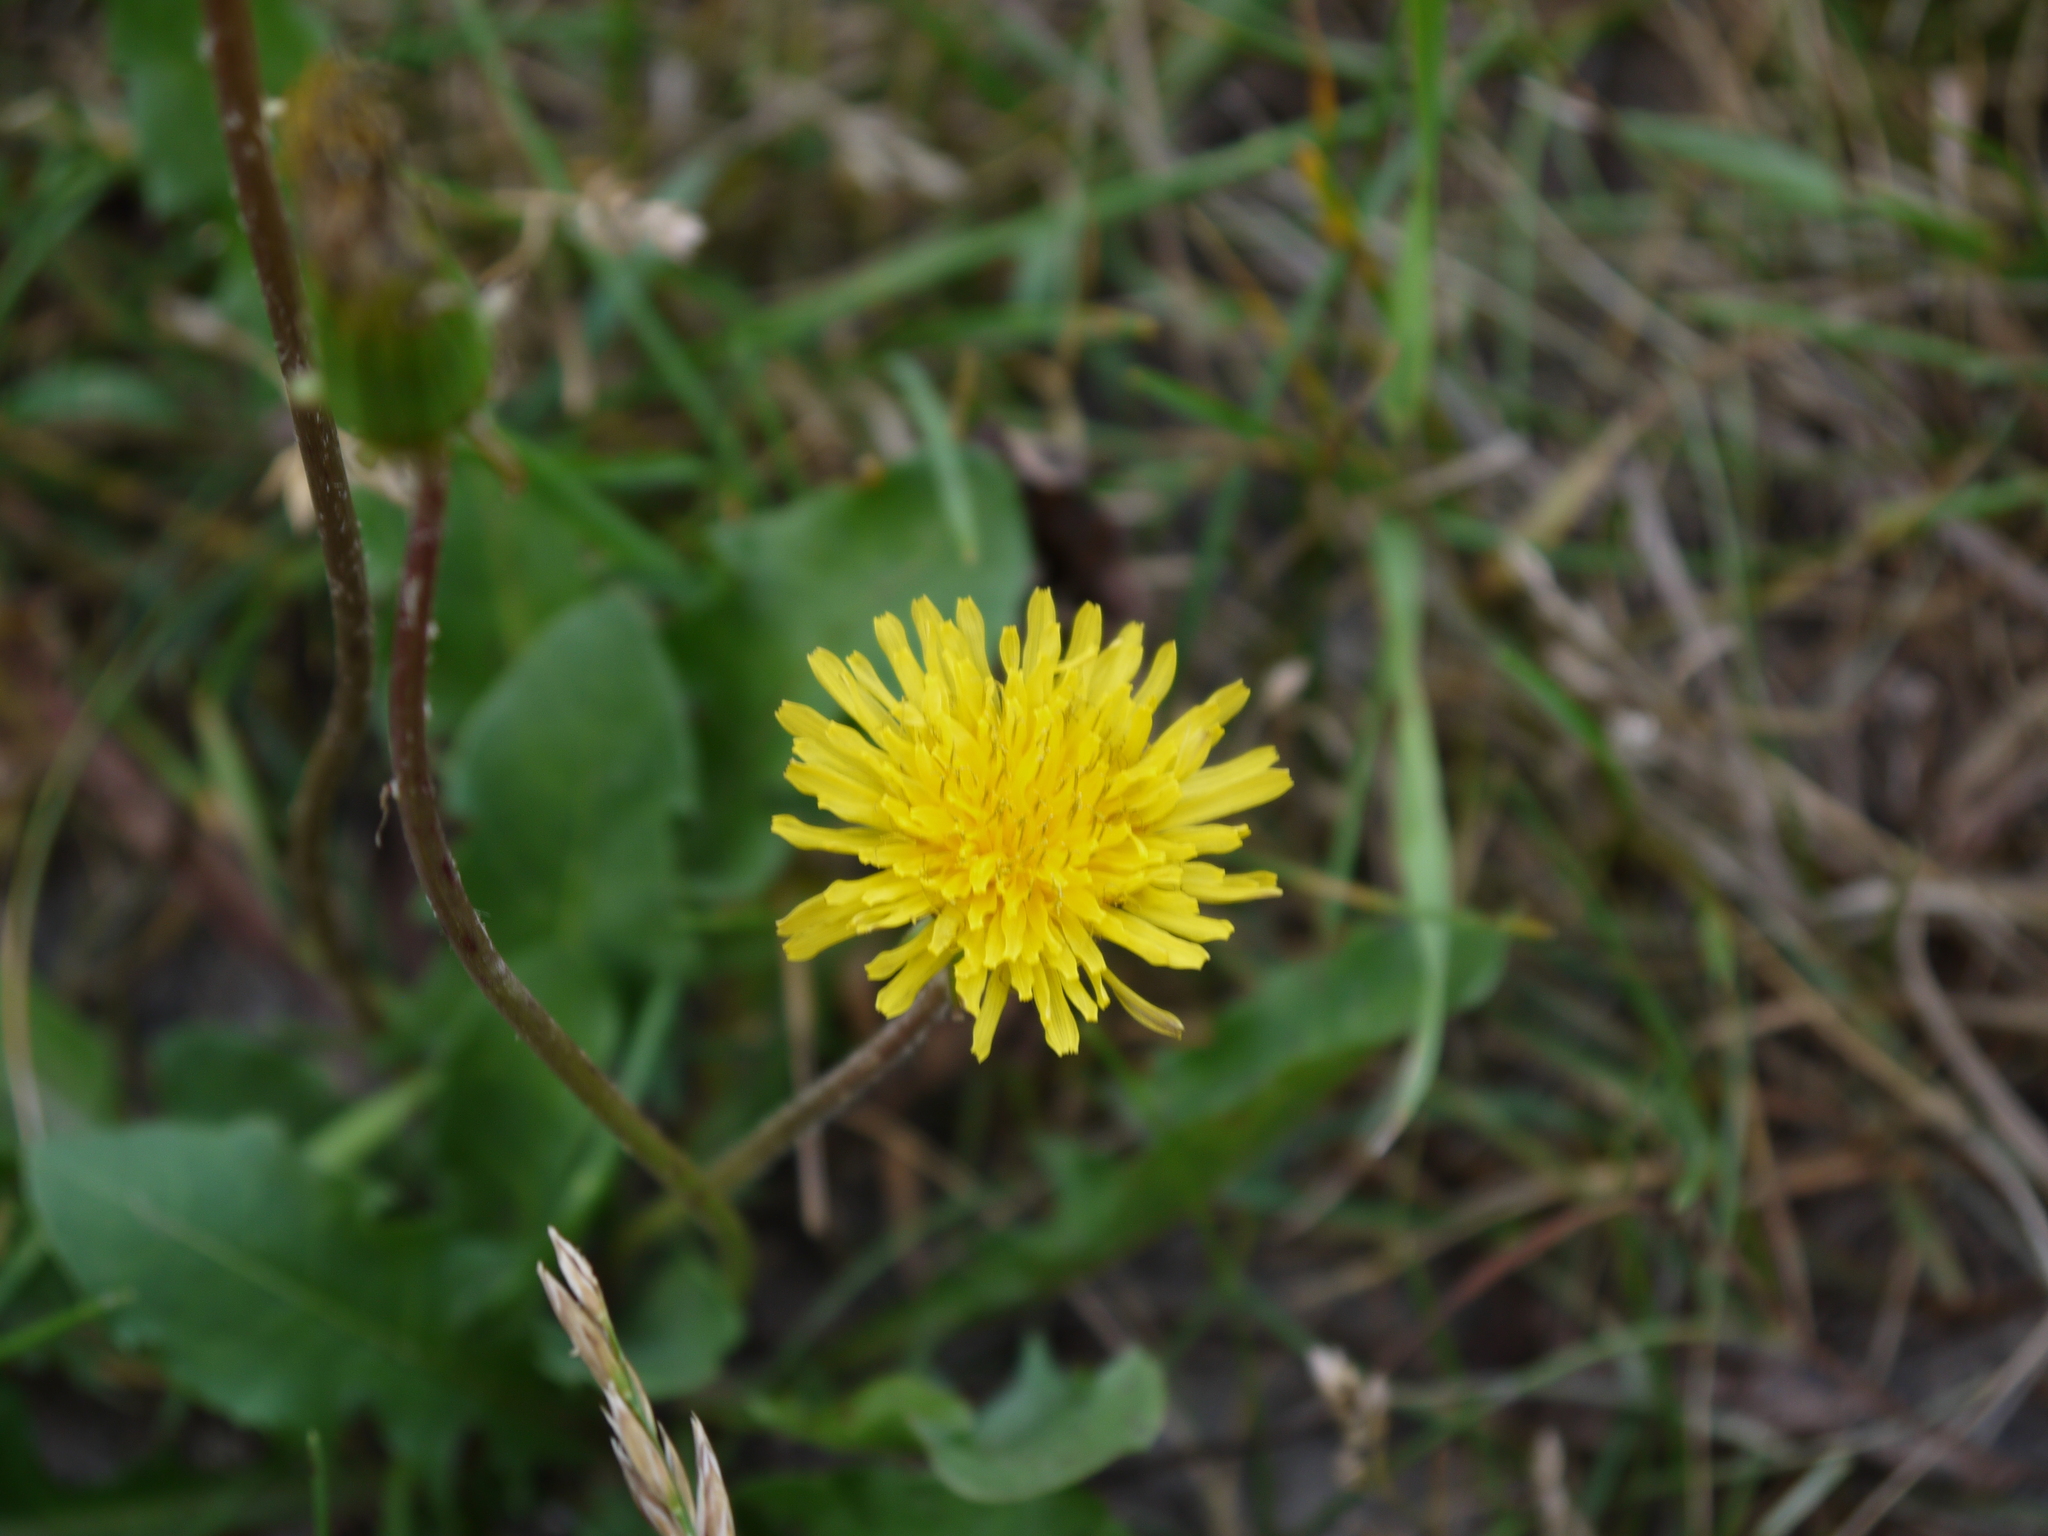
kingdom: Plantae
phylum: Tracheophyta
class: Magnoliopsida
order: Asterales
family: Asteraceae
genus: Taraxacum
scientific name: Taraxacum officinale
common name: Common dandelion
